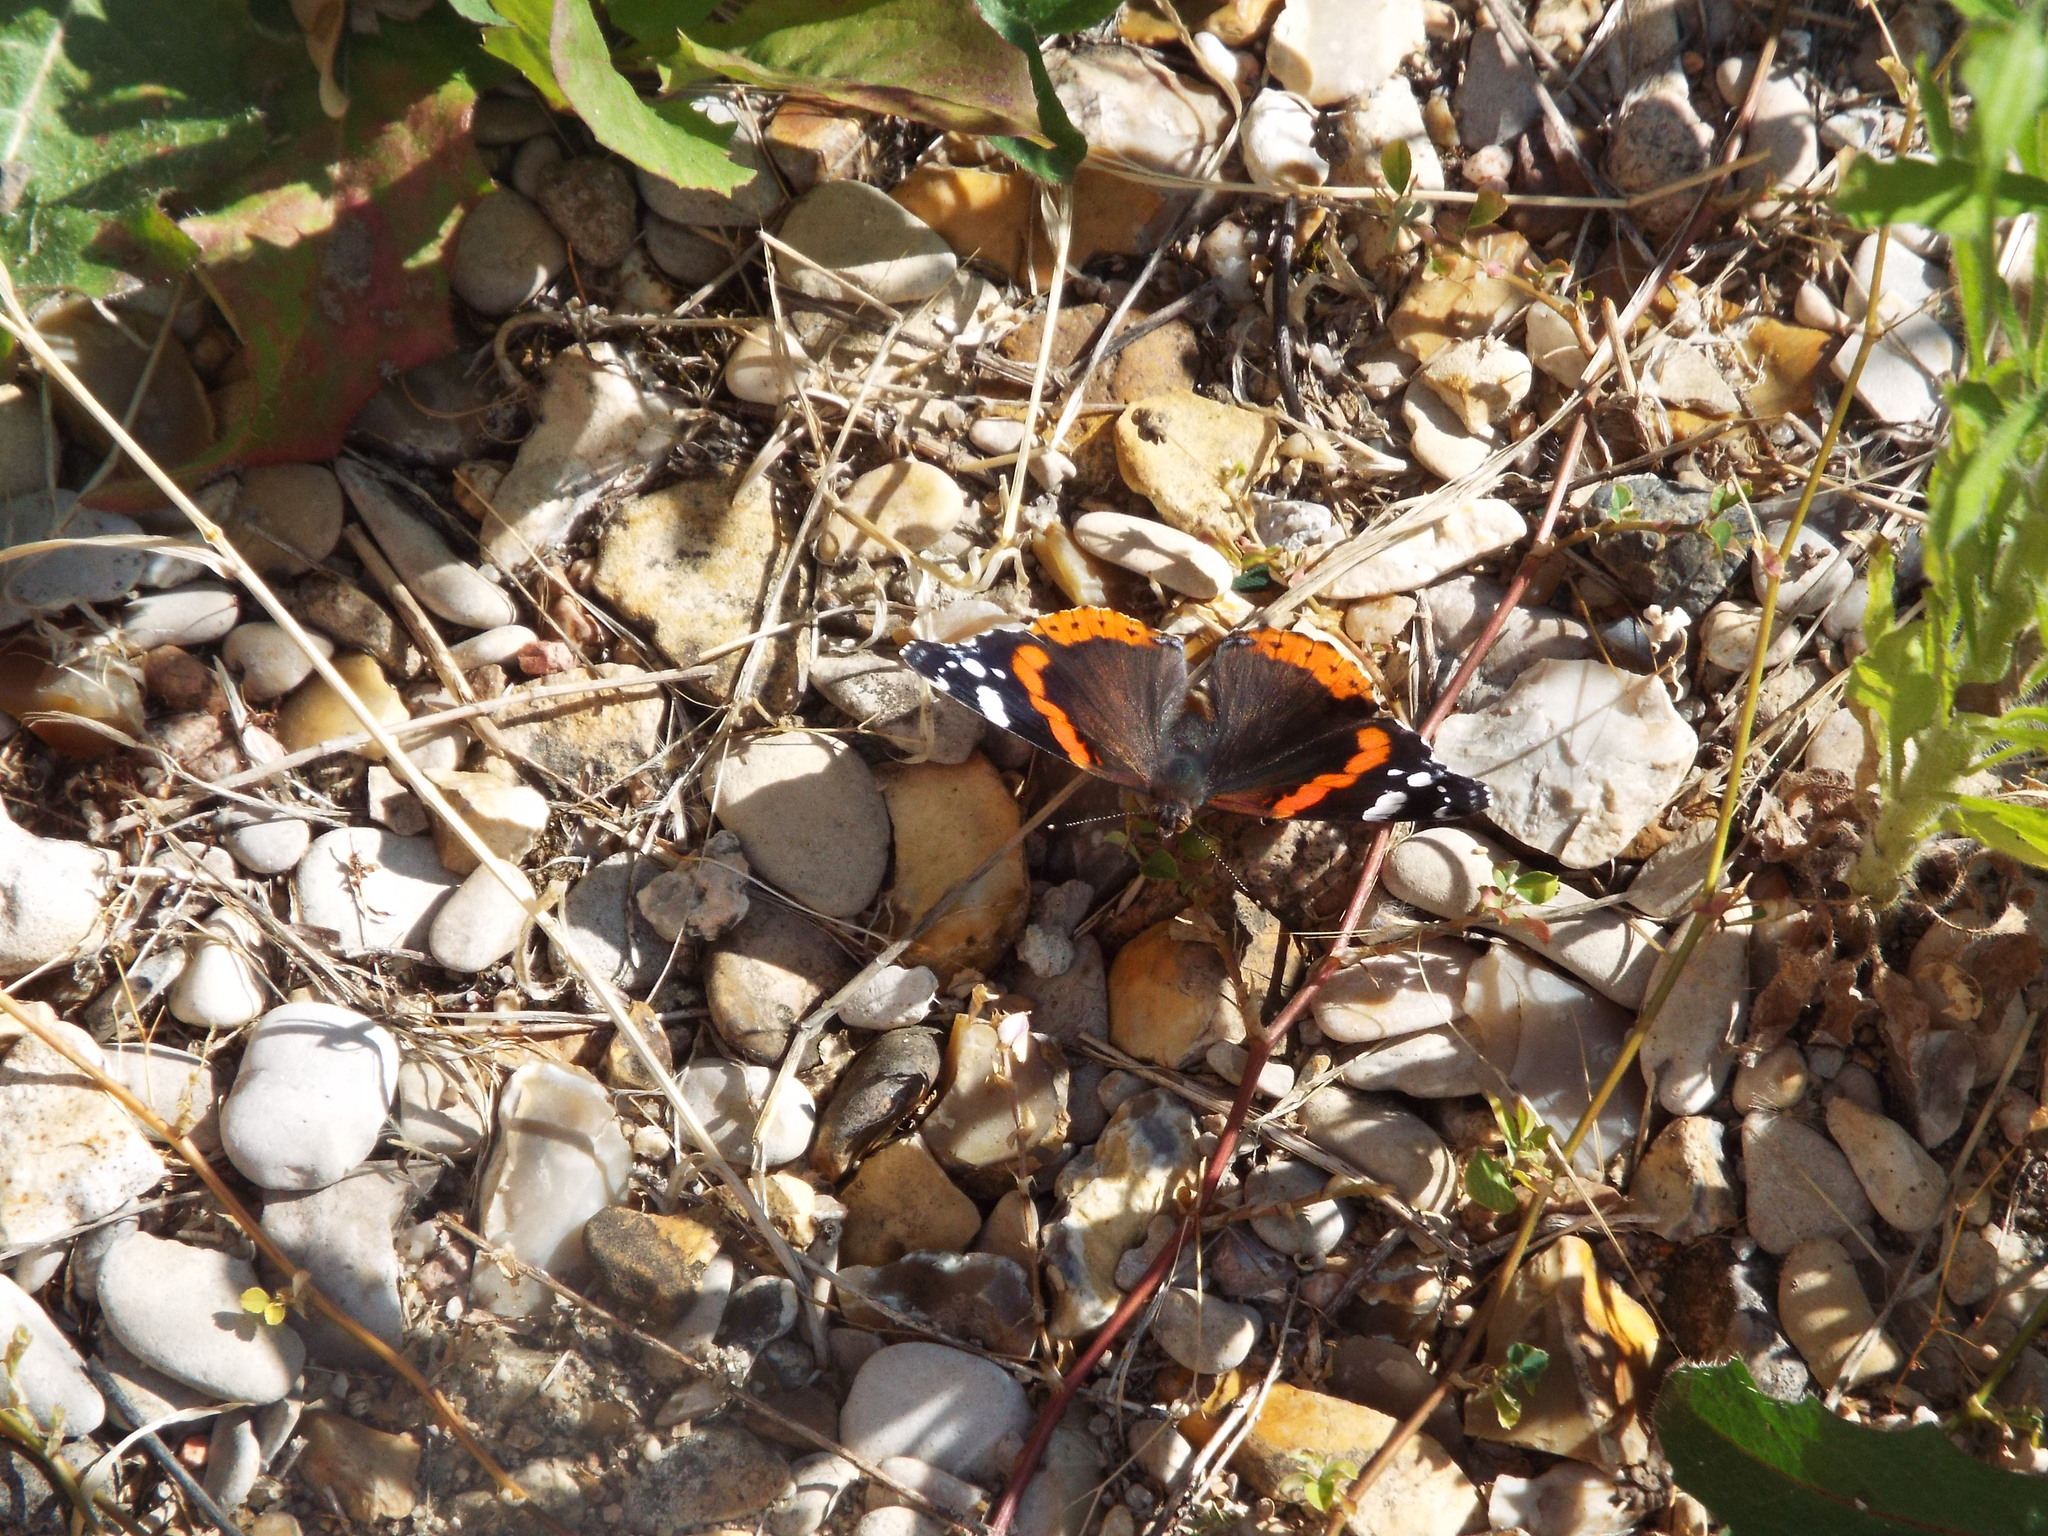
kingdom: Animalia
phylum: Arthropoda
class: Insecta
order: Lepidoptera
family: Nymphalidae
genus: Vanessa
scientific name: Vanessa atalanta
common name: Red admiral
